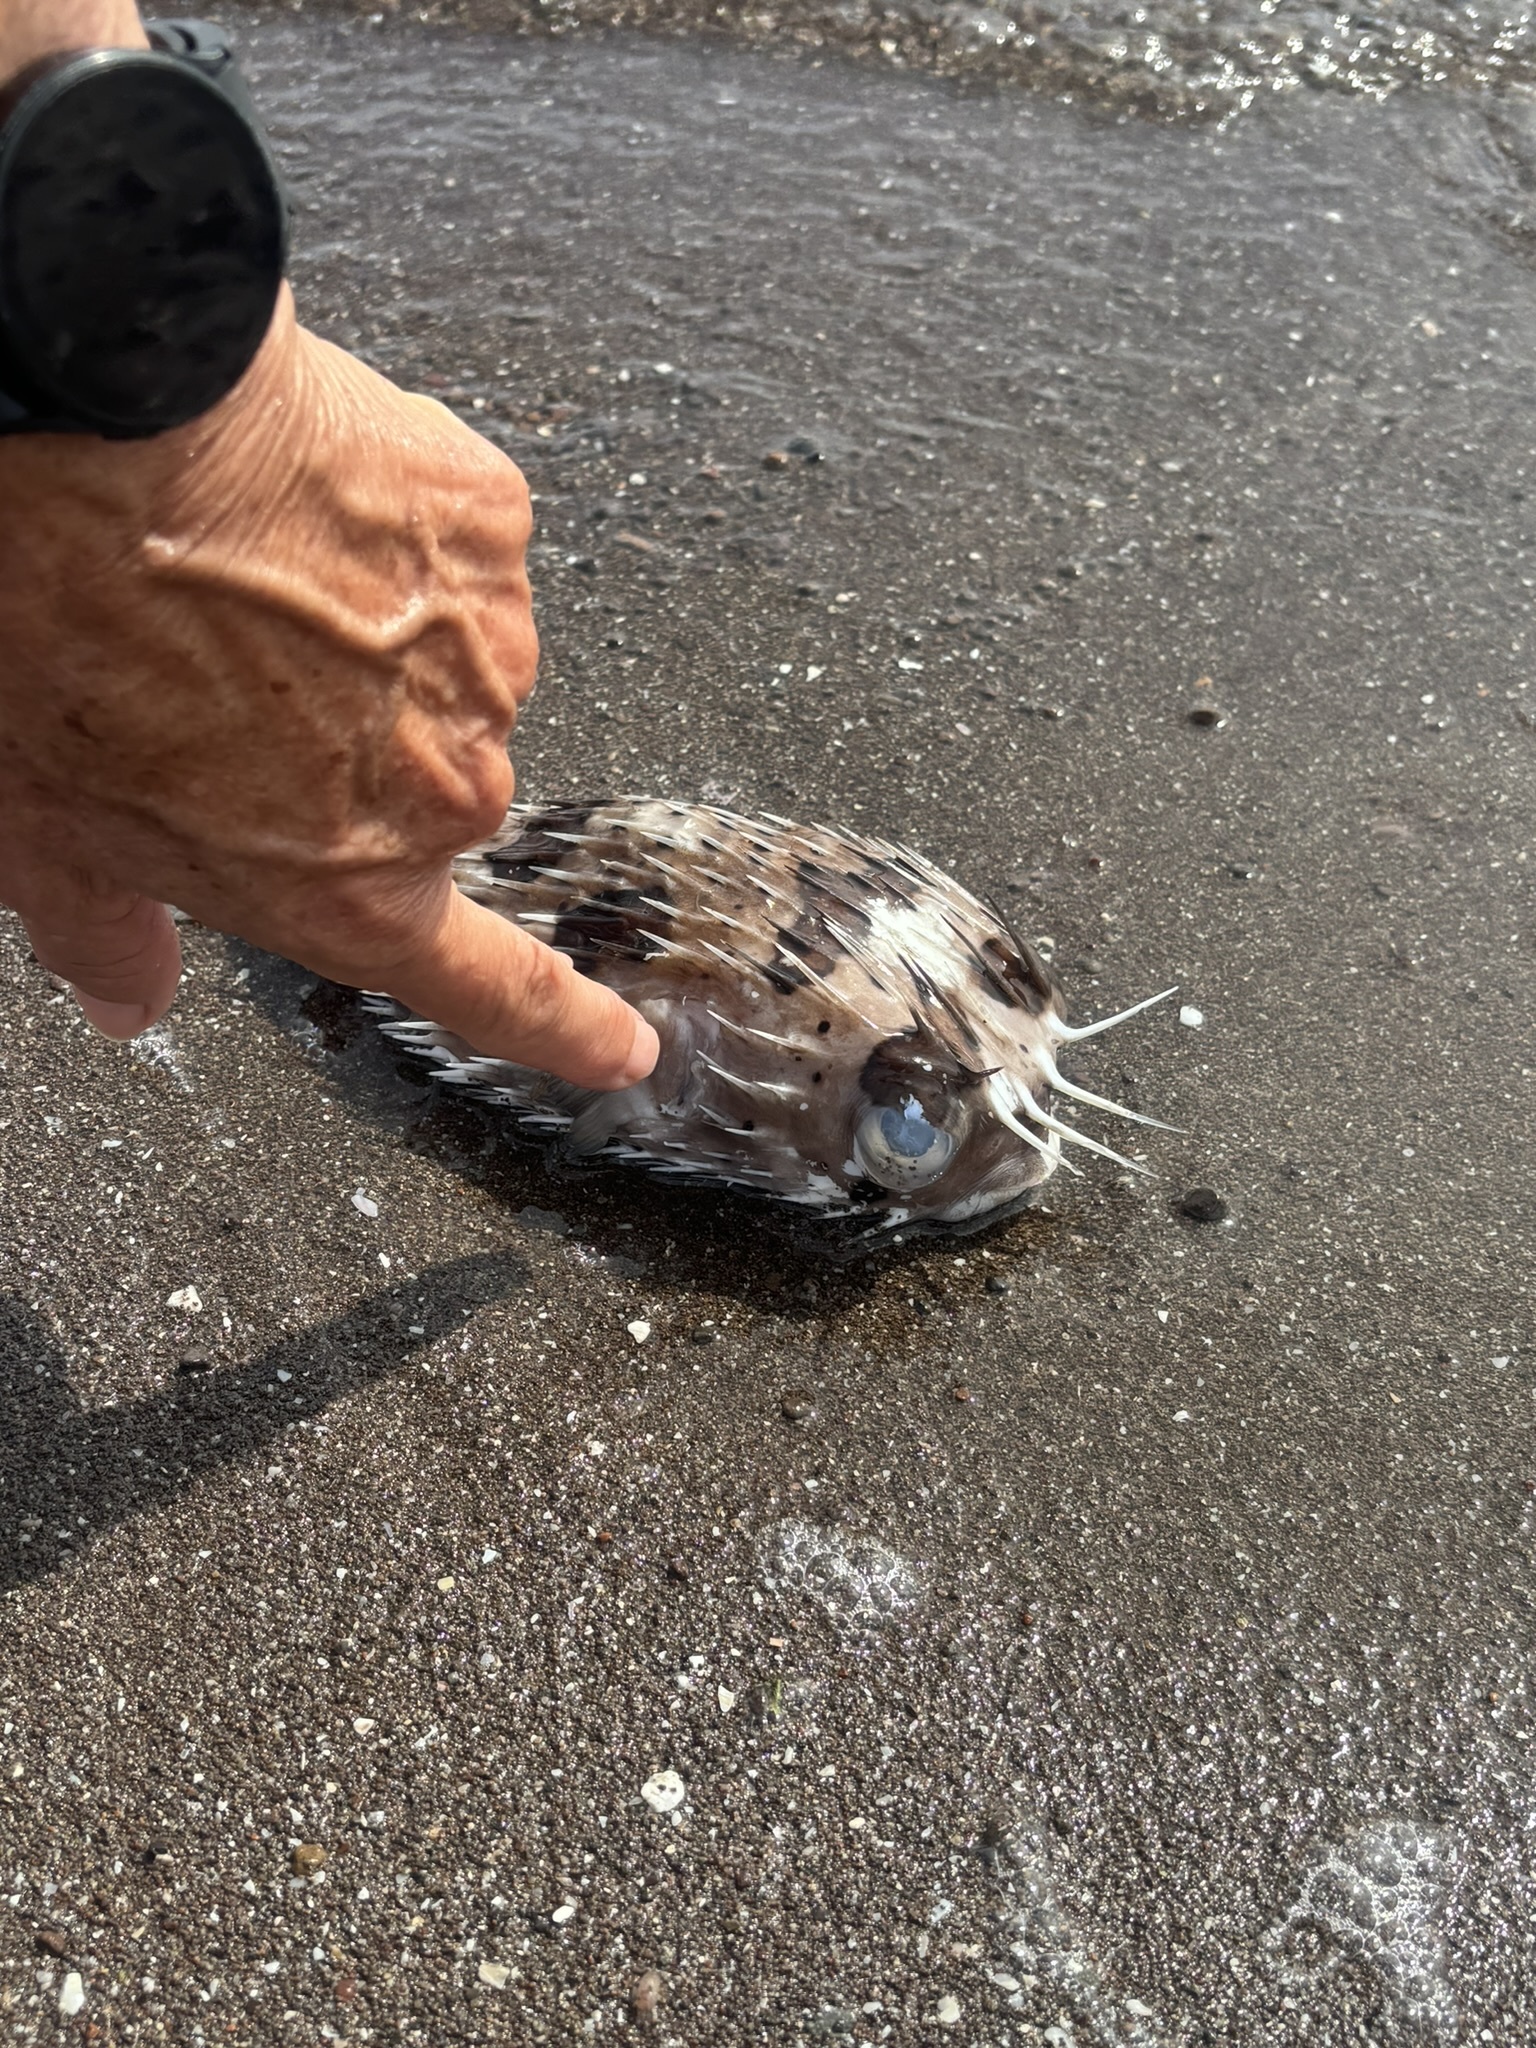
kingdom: Animalia
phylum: Chordata
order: Tetraodontiformes
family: Diodontidae
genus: Diodon
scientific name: Diodon holocanthus
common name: Balloonfish
